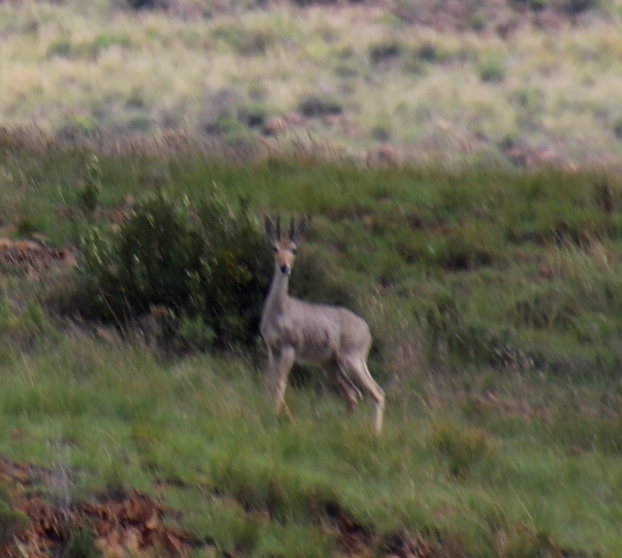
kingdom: Animalia
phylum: Chordata
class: Mammalia
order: Artiodactyla
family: Bovidae
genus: Redunca
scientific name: Redunca fulvorufula
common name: Mountain reedbuck
